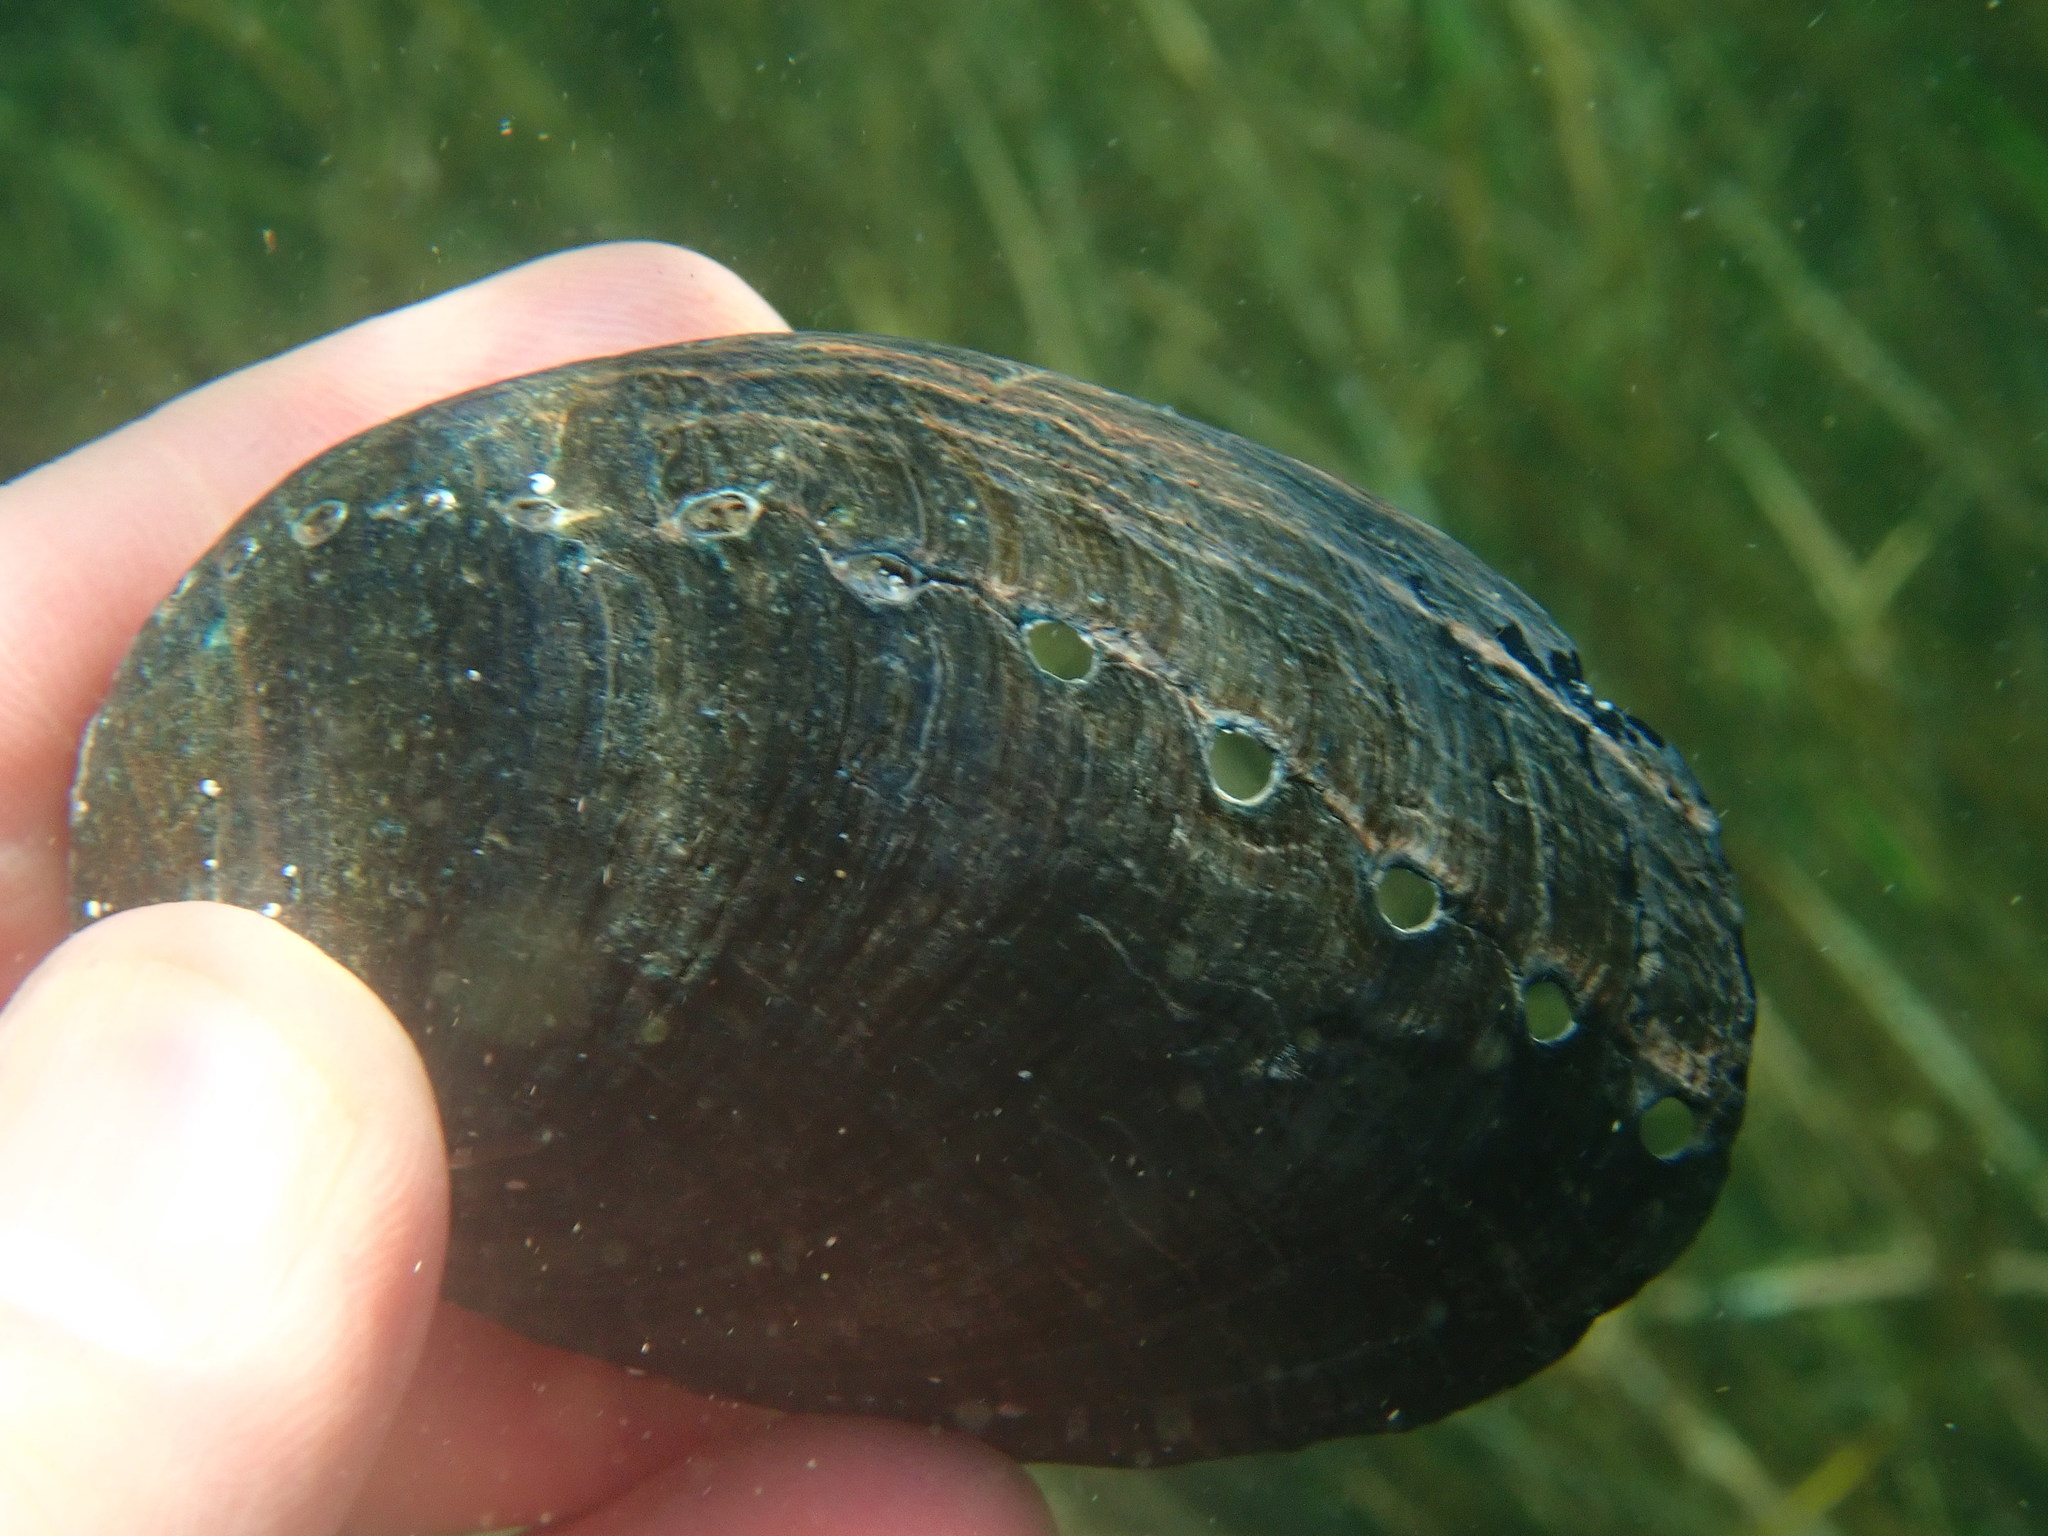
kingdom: Animalia
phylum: Mollusca
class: Gastropoda
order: Lepetellida
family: Haliotidae
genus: Haliotis
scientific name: Haliotis cracherodii
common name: Black abalone
